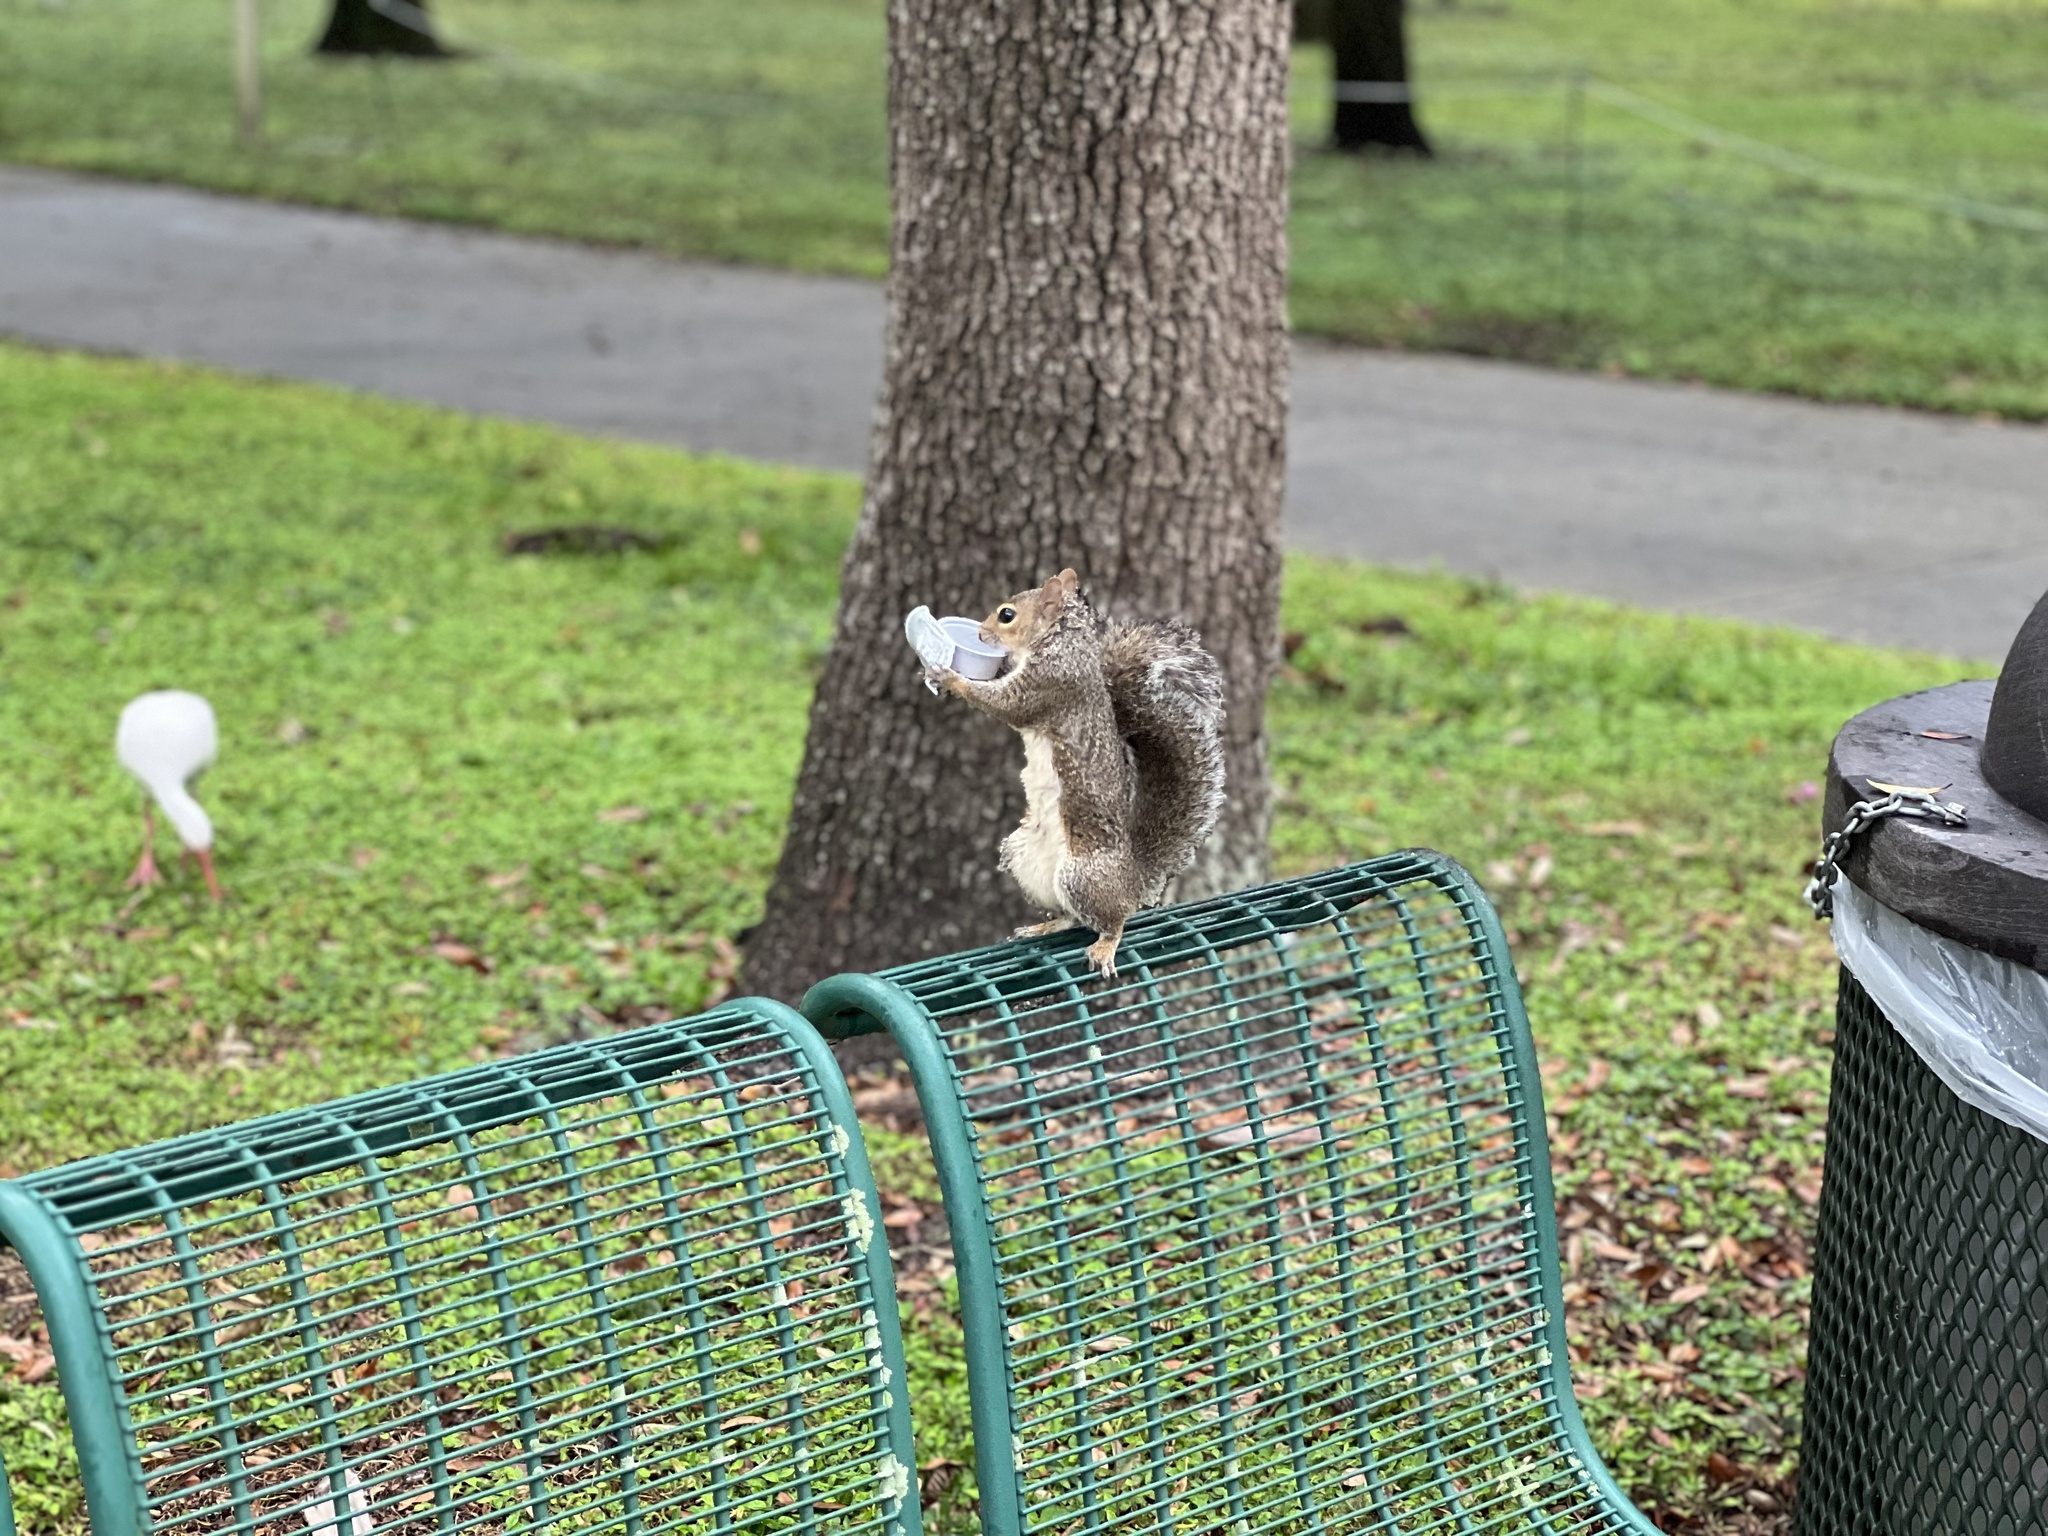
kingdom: Animalia
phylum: Chordata
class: Mammalia
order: Rodentia
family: Sciuridae
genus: Sciurus
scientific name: Sciurus carolinensis
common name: Eastern gray squirrel
